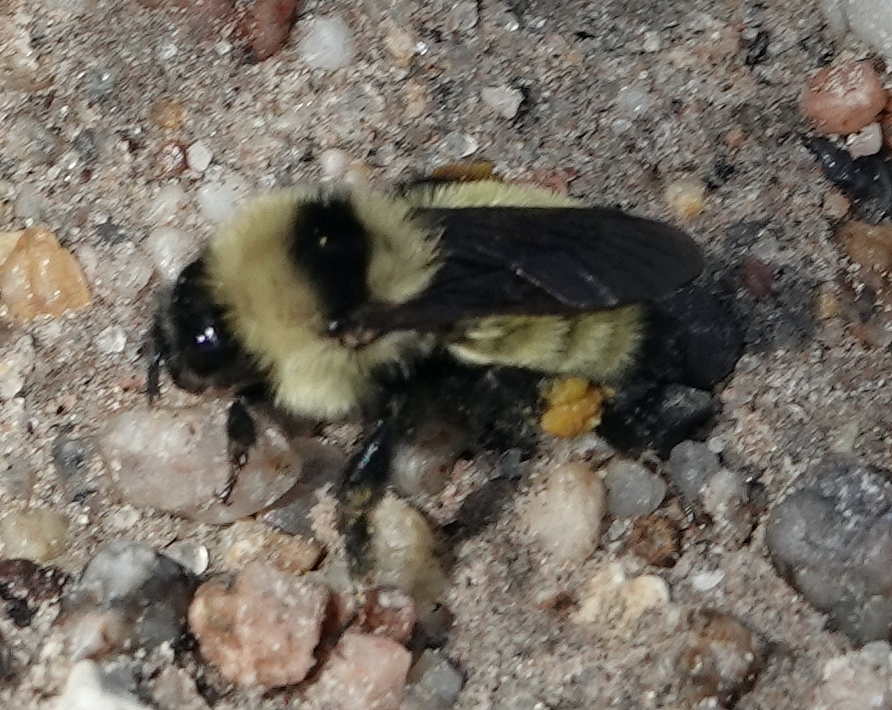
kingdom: Animalia
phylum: Arthropoda
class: Insecta
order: Hymenoptera
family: Apidae
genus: Bombus
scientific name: Bombus fervidus
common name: Yellow bumble bee
